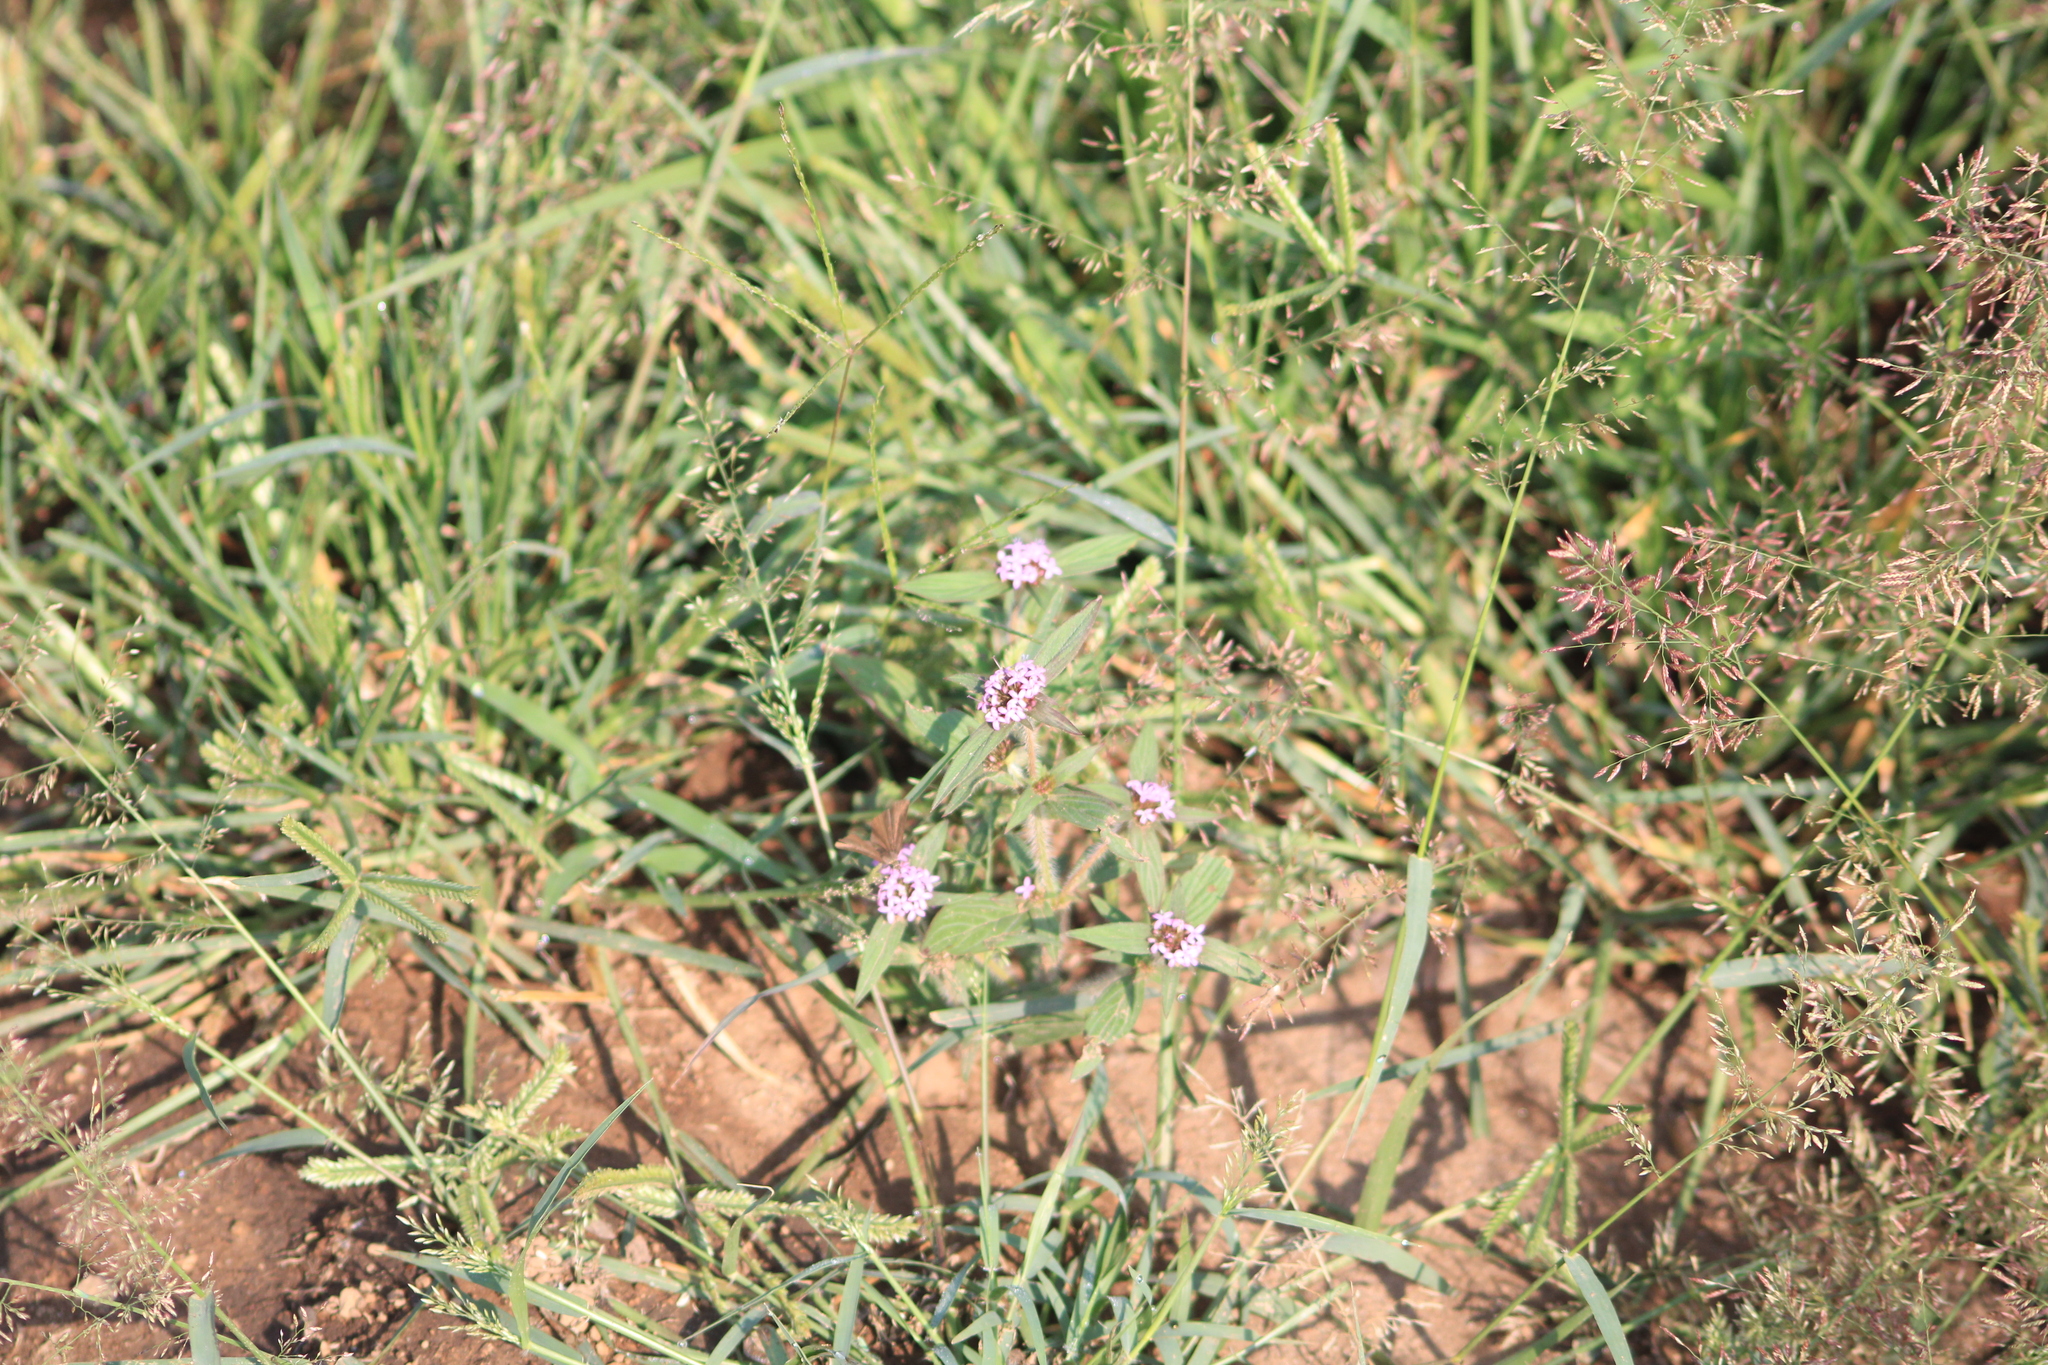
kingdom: Plantae
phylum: Tracheophyta
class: Magnoliopsida
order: Gentianales
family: Rubiaceae
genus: Crusea
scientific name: Crusea hispida
